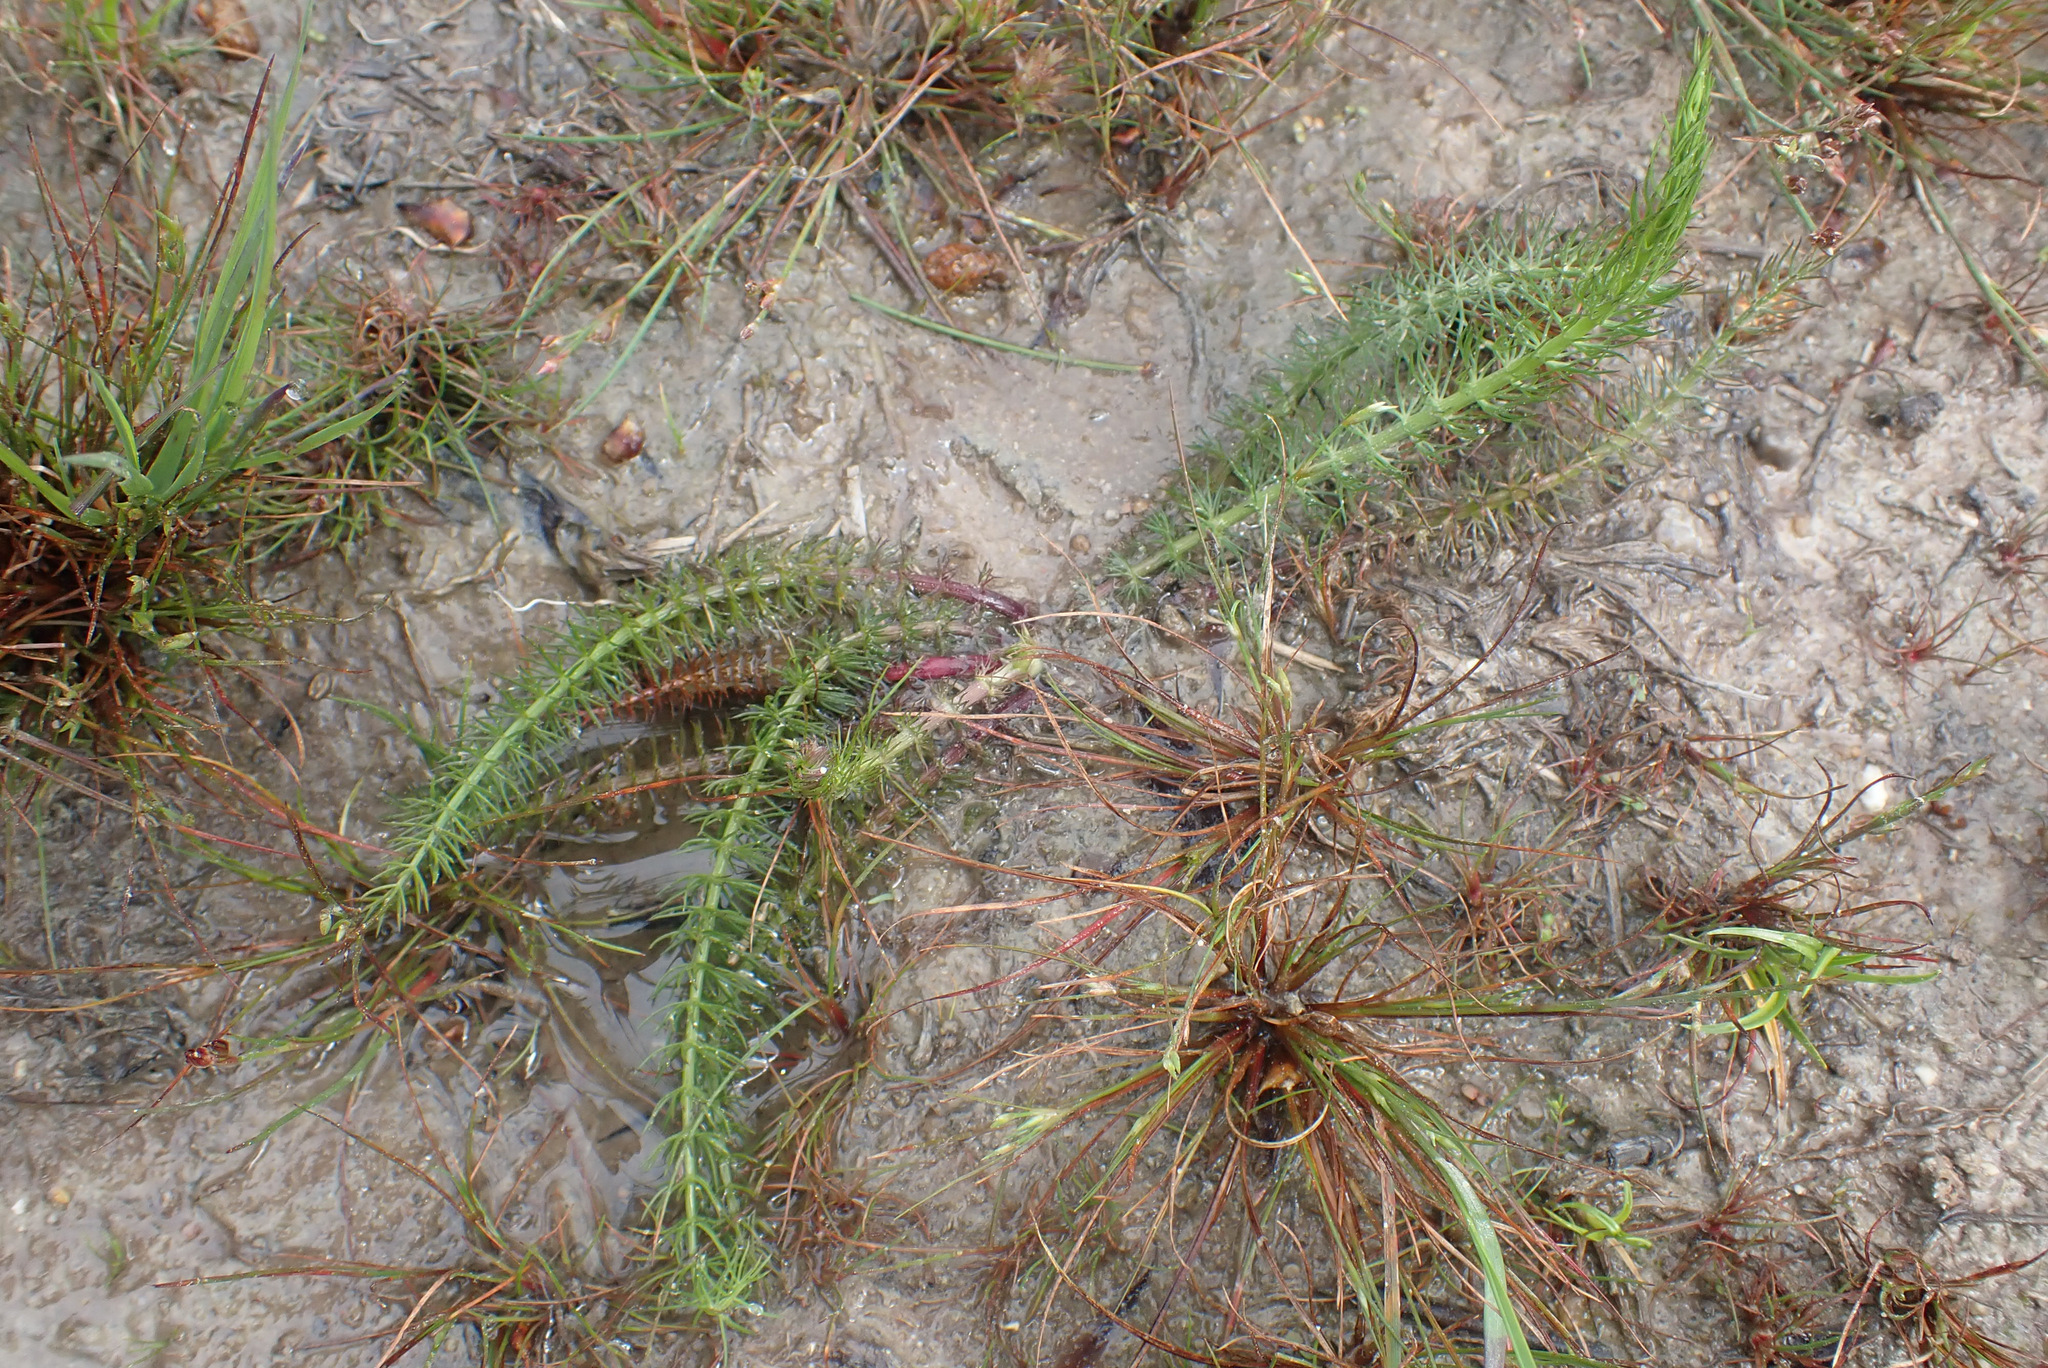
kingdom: Plantae
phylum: Tracheophyta
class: Magnoliopsida
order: Apiales
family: Apiaceae
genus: Trocdaris
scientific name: Trocdaris verticillatum
